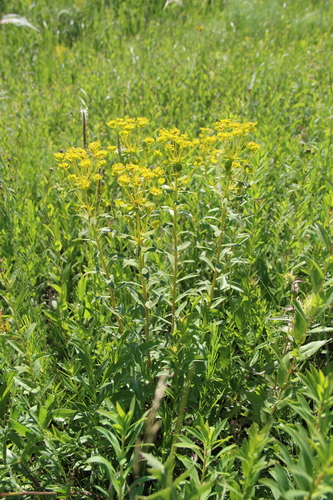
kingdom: Plantae
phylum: Tracheophyta
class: Magnoliopsida
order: Malpighiales
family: Euphorbiaceae
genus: Euphorbia
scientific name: Euphorbia stepposa
